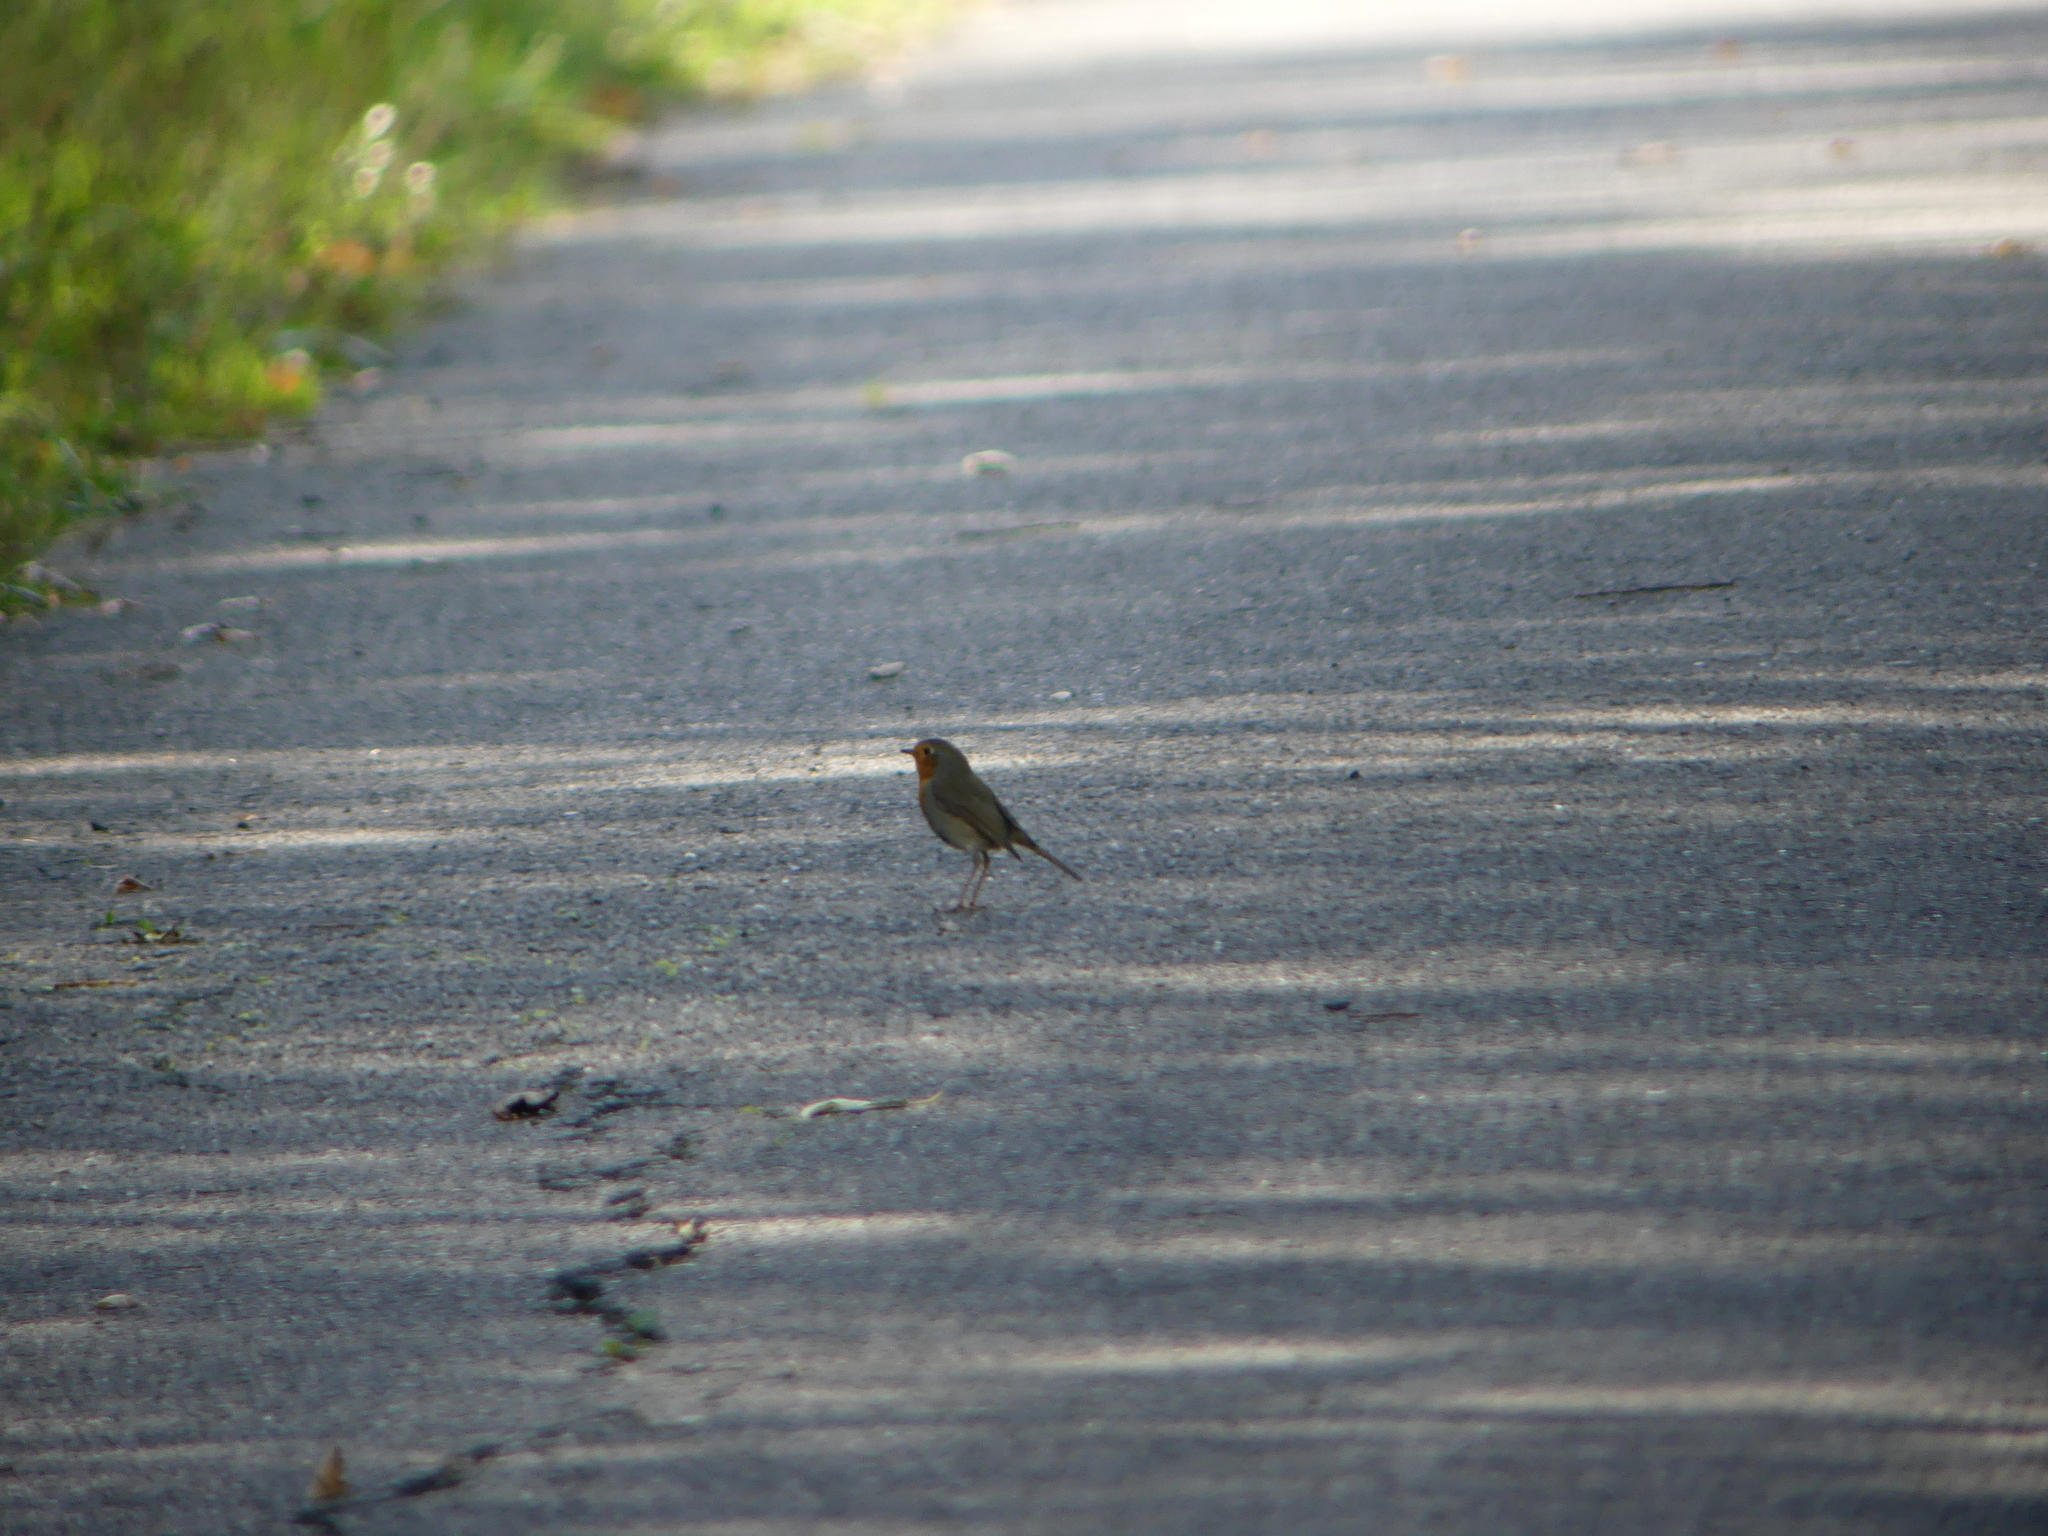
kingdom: Animalia
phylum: Chordata
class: Aves
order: Passeriformes
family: Muscicapidae
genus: Erithacus
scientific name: Erithacus rubecula
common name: European robin
